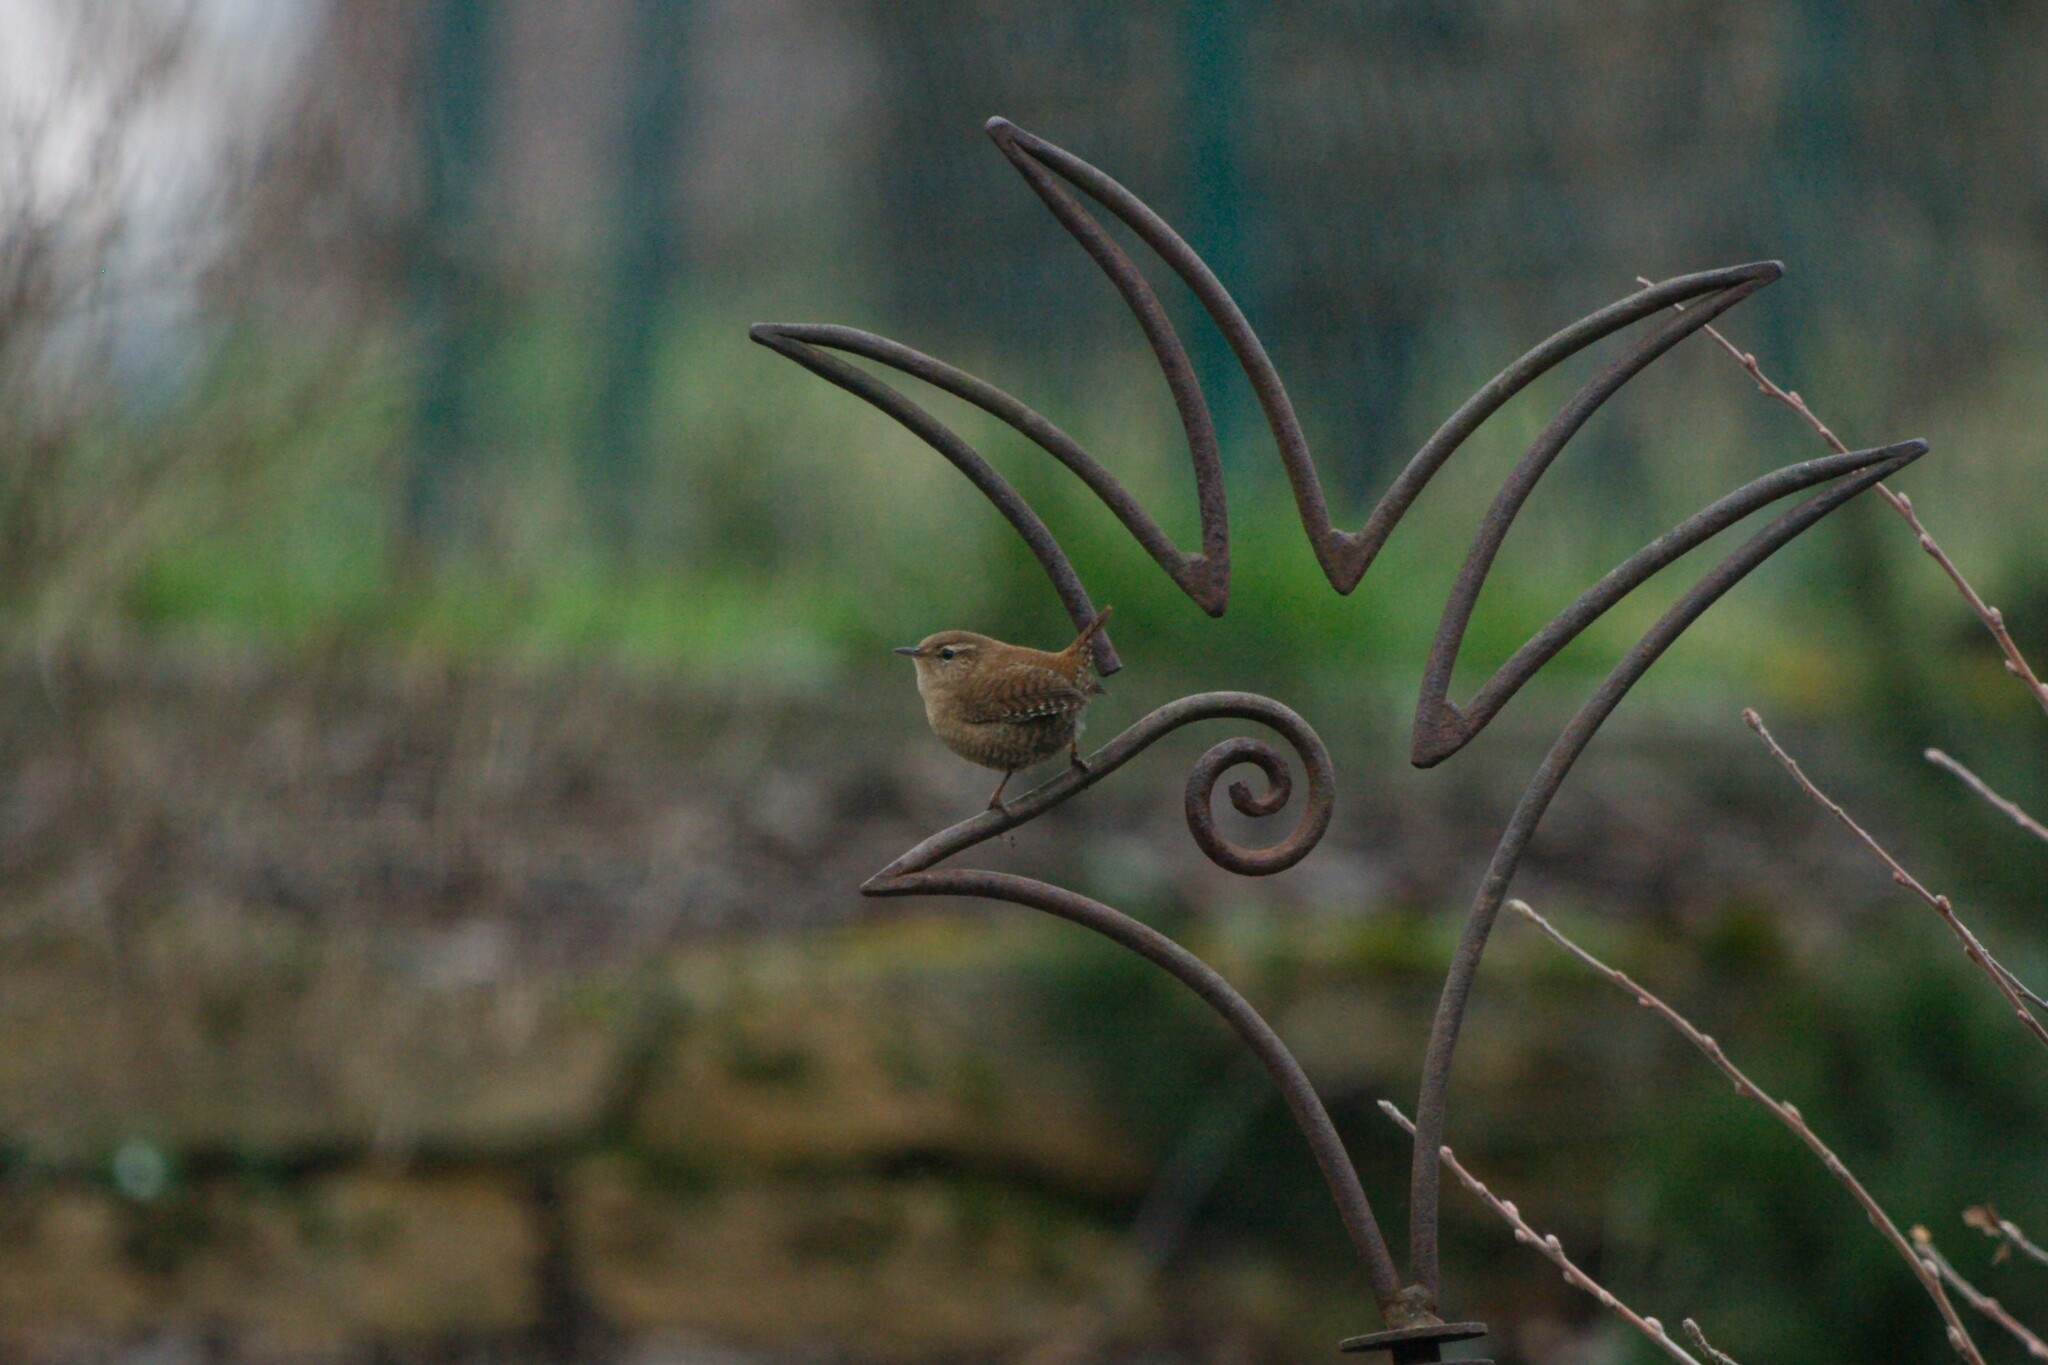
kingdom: Animalia
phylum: Chordata
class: Aves
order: Passeriformes
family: Troglodytidae
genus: Troglodytes
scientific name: Troglodytes troglodytes
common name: Eurasian wren
